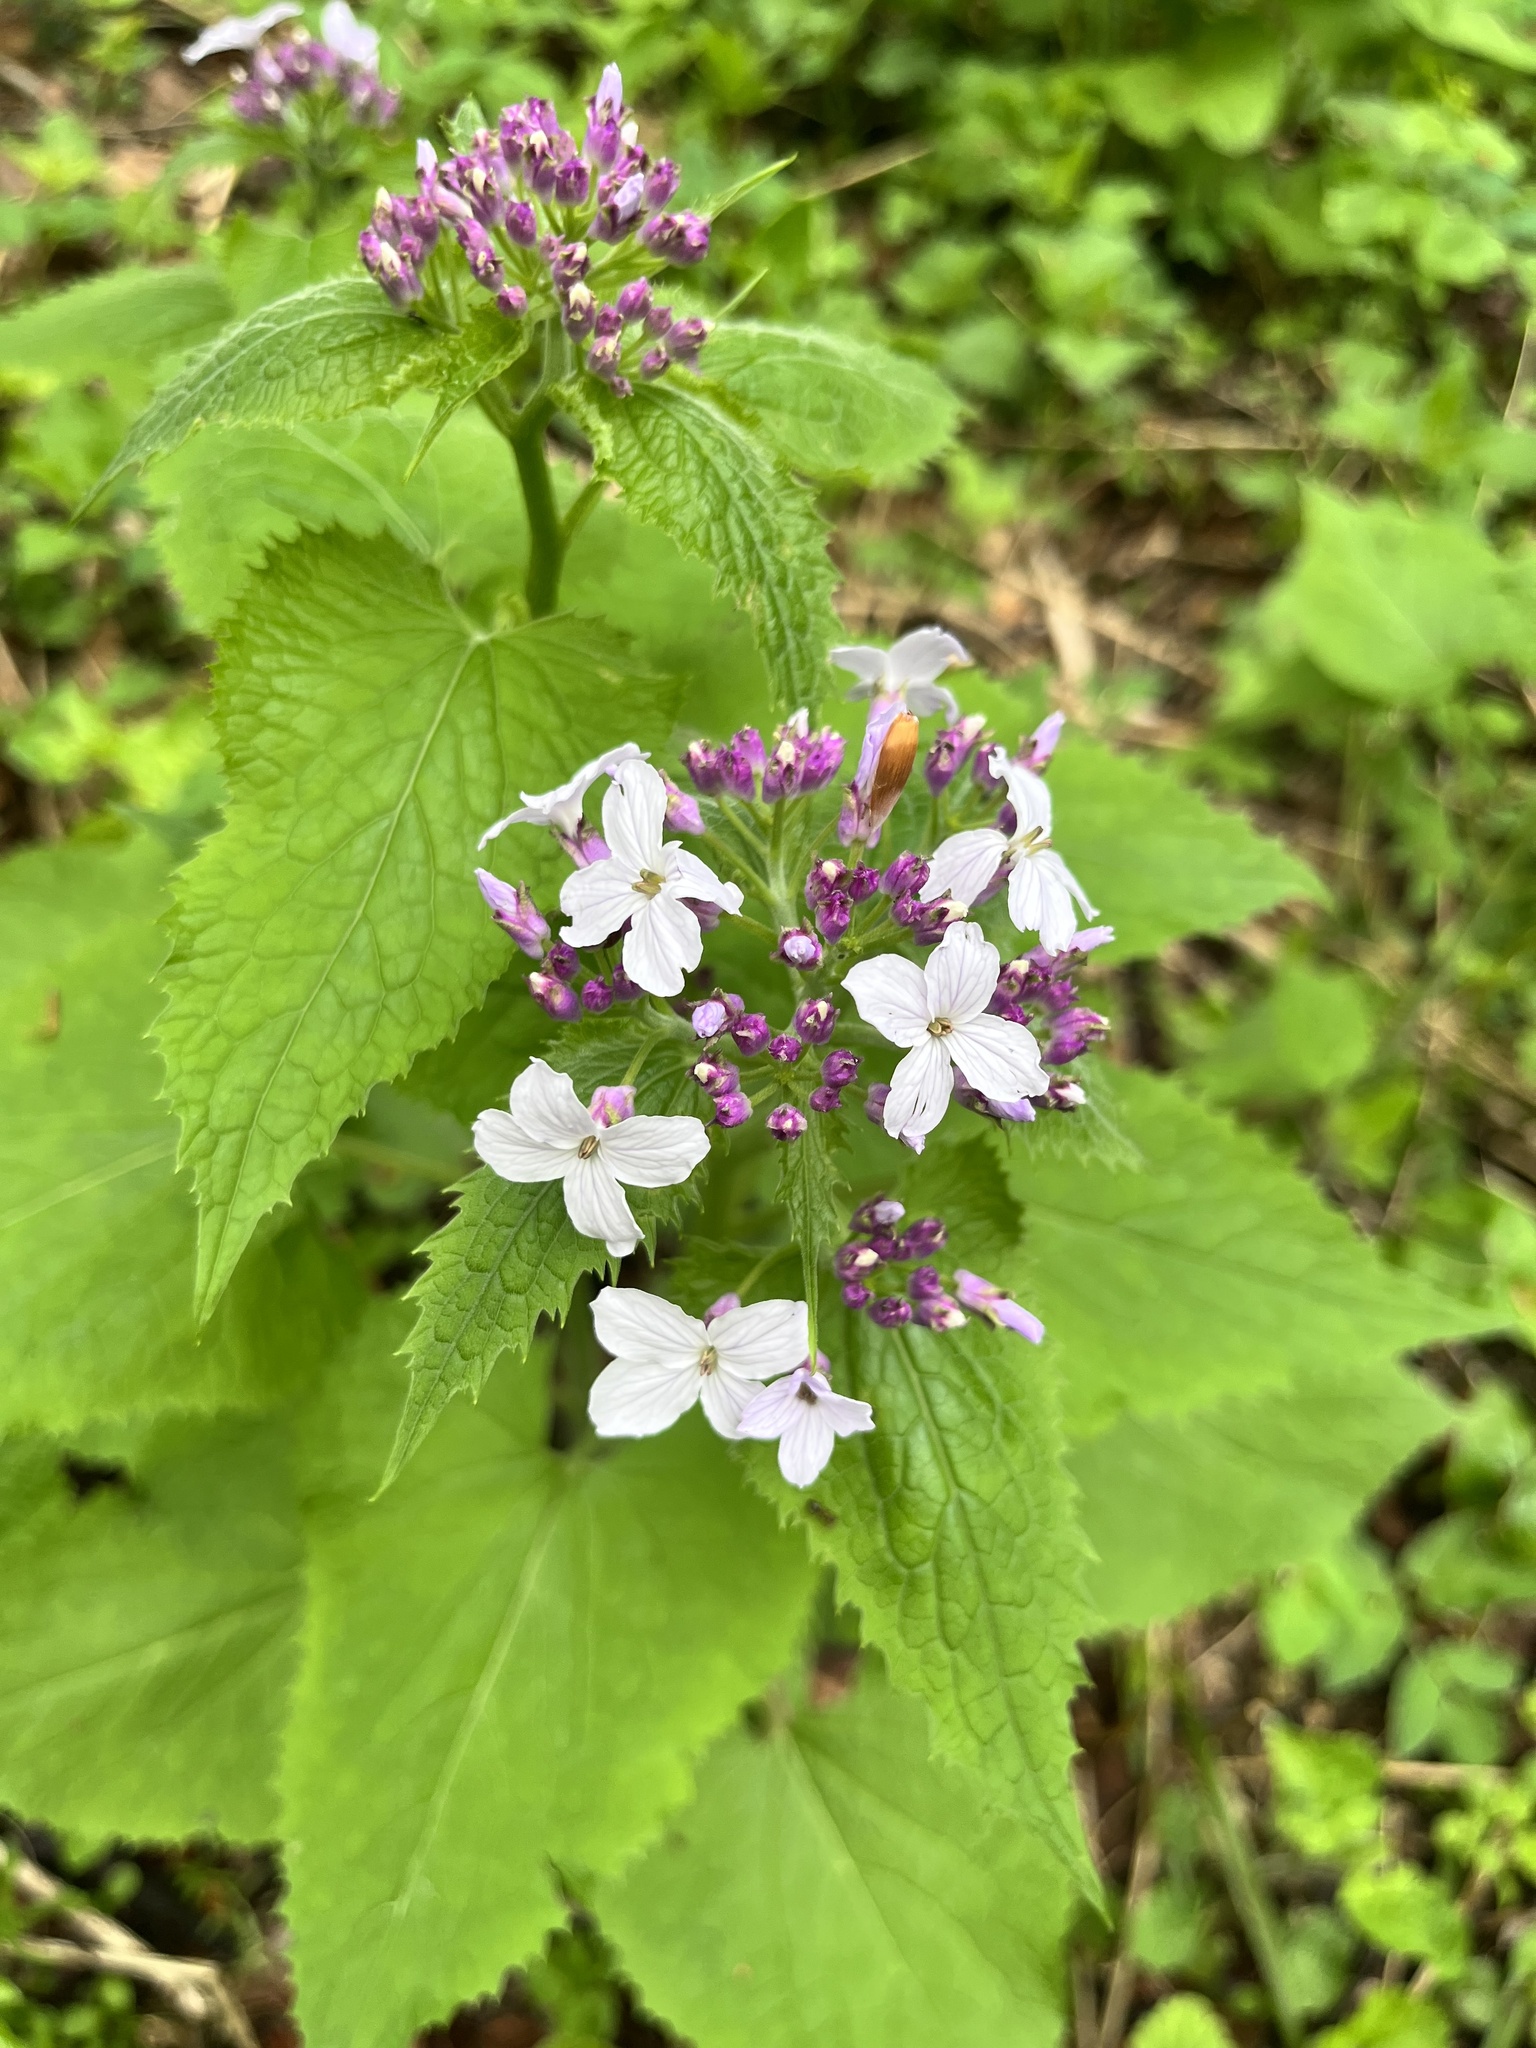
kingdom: Plantae
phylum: Tracheophyta
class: Magnoliopsida
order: Brassicales
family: Brassicaceae
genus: Lunaria
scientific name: Lunaria rediviva
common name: Perennial honesty
